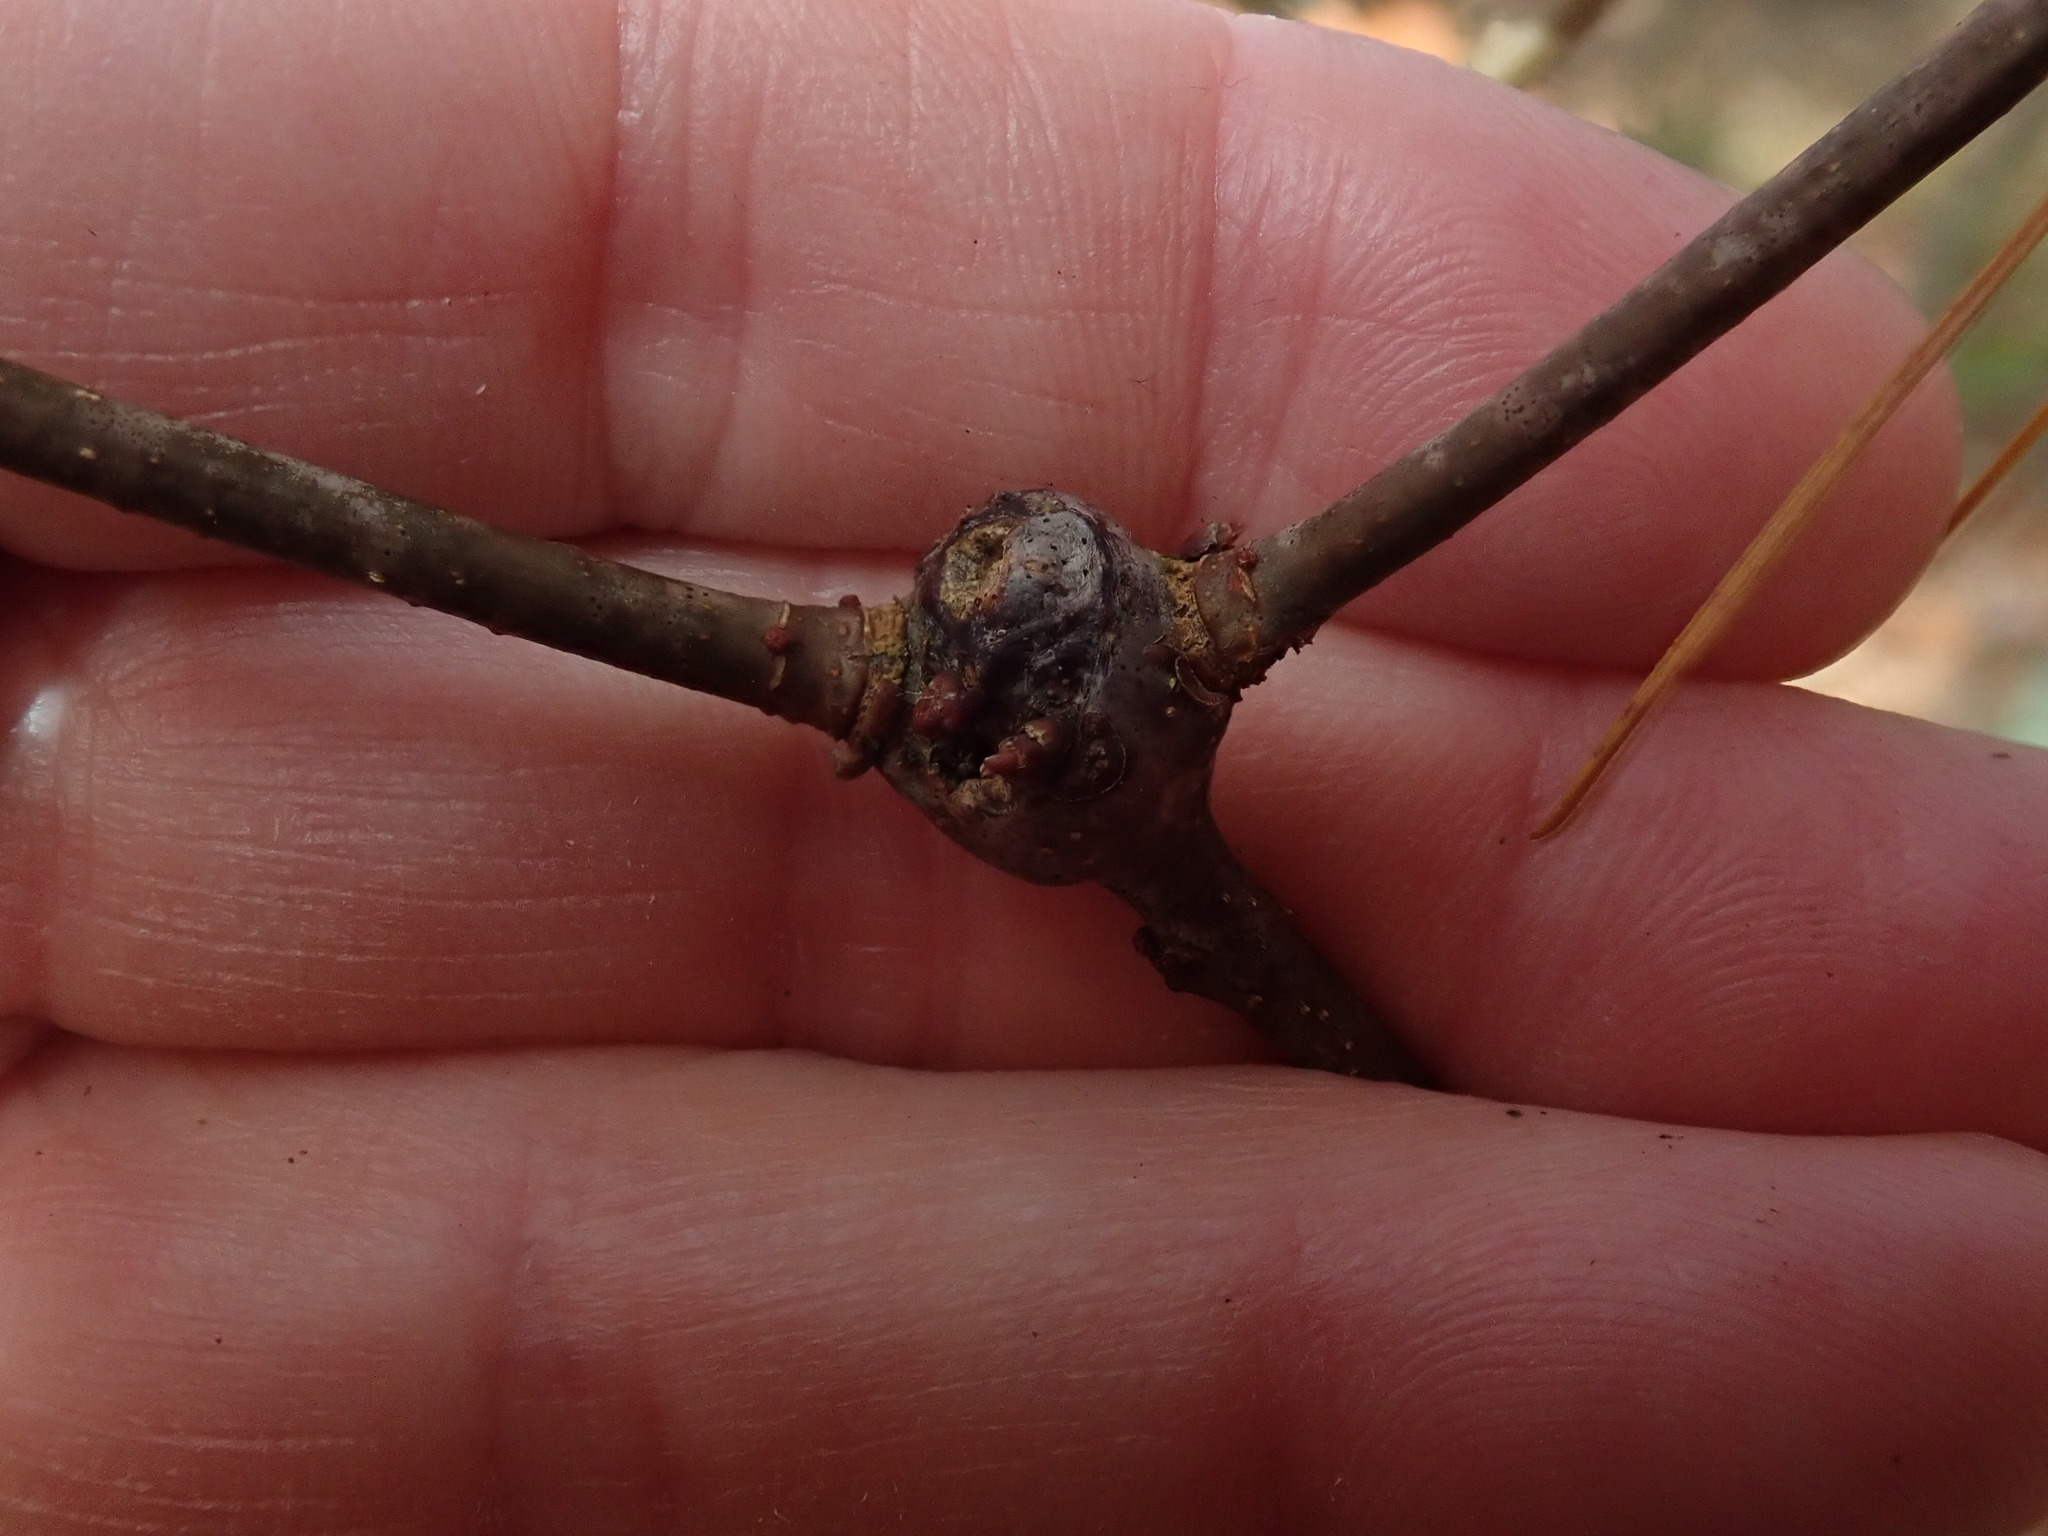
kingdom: Animalia
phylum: Arthropoda
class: Insecta
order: Hymenoptera
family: Cynipidae
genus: Callirhytis
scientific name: Callirhytis clavula
